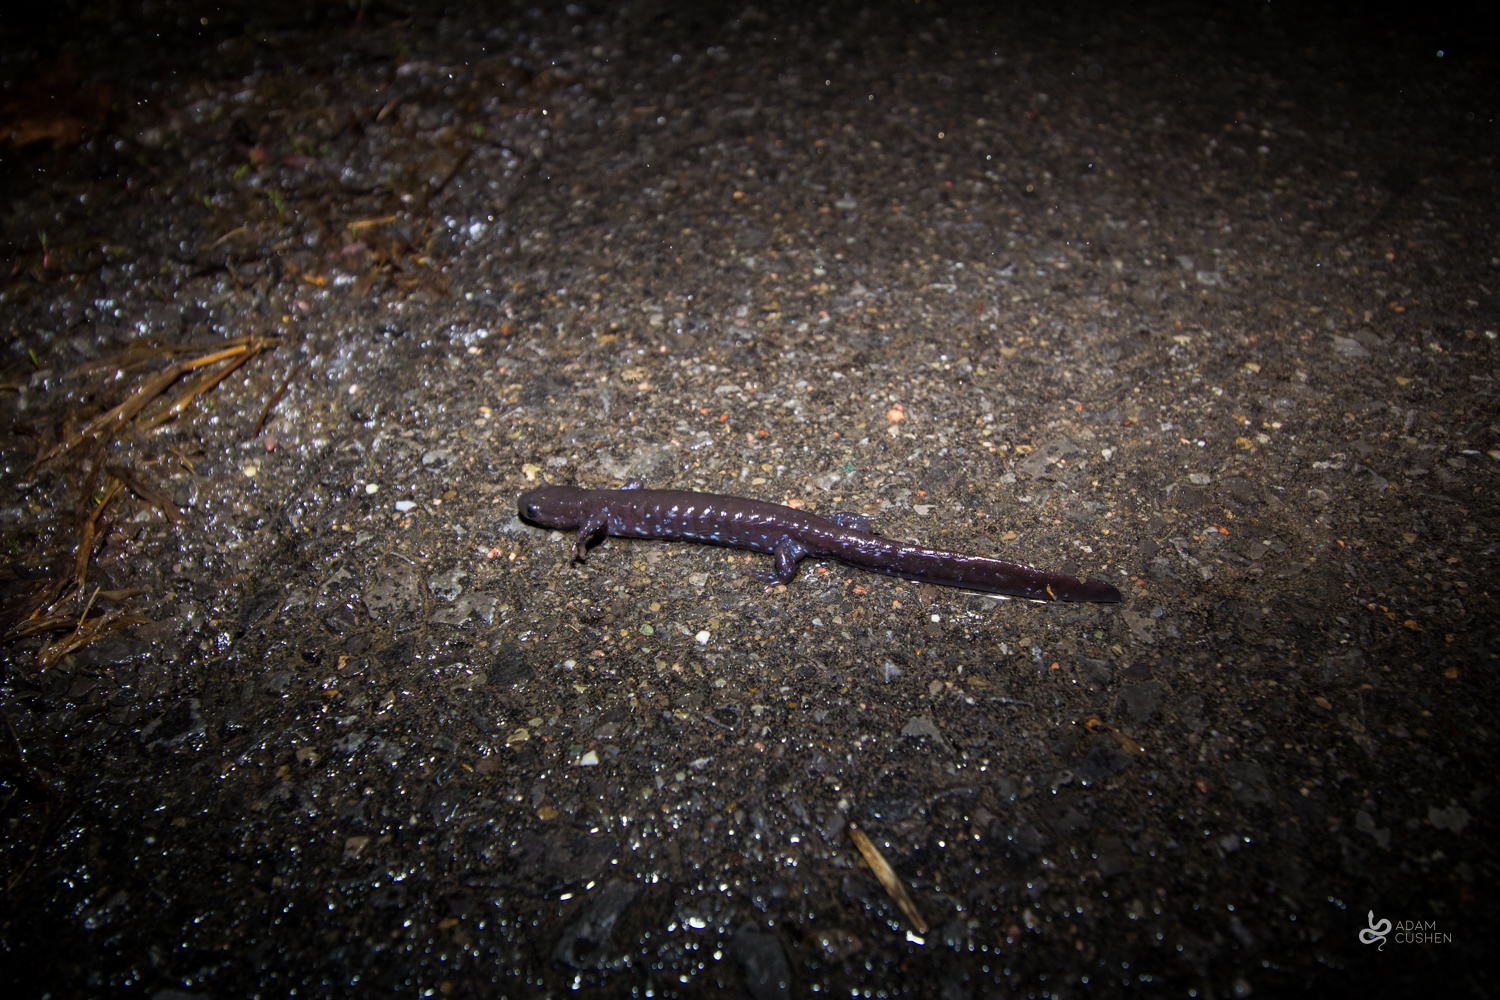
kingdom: Animalia
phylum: Chordata
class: Amphibia
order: Caudata
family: Ambystomatidae
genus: Ambystoma
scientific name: Ambystoma laterale
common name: Blue-spotted salamander
